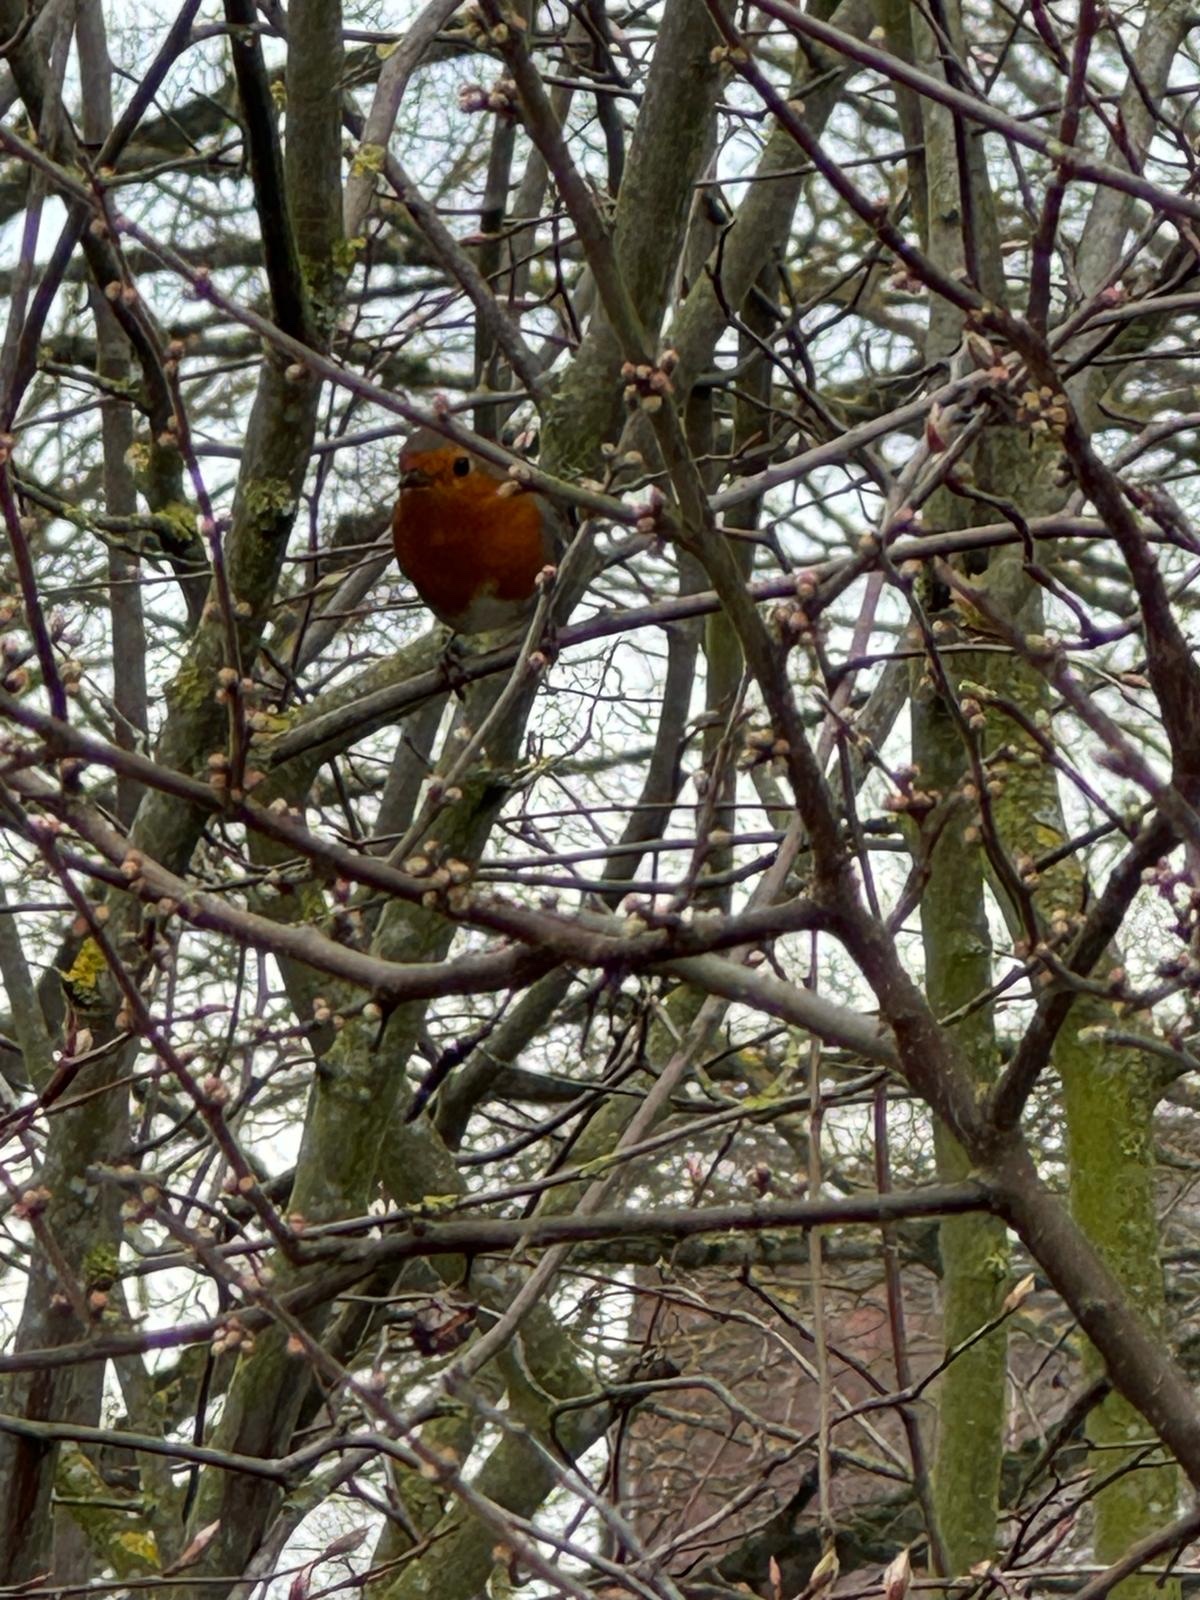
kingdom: Animalia
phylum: Chordata
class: Aves
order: Passeriformes
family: Muscicapidae
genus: Erithacus
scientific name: Erithacus rubecula
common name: European robin
